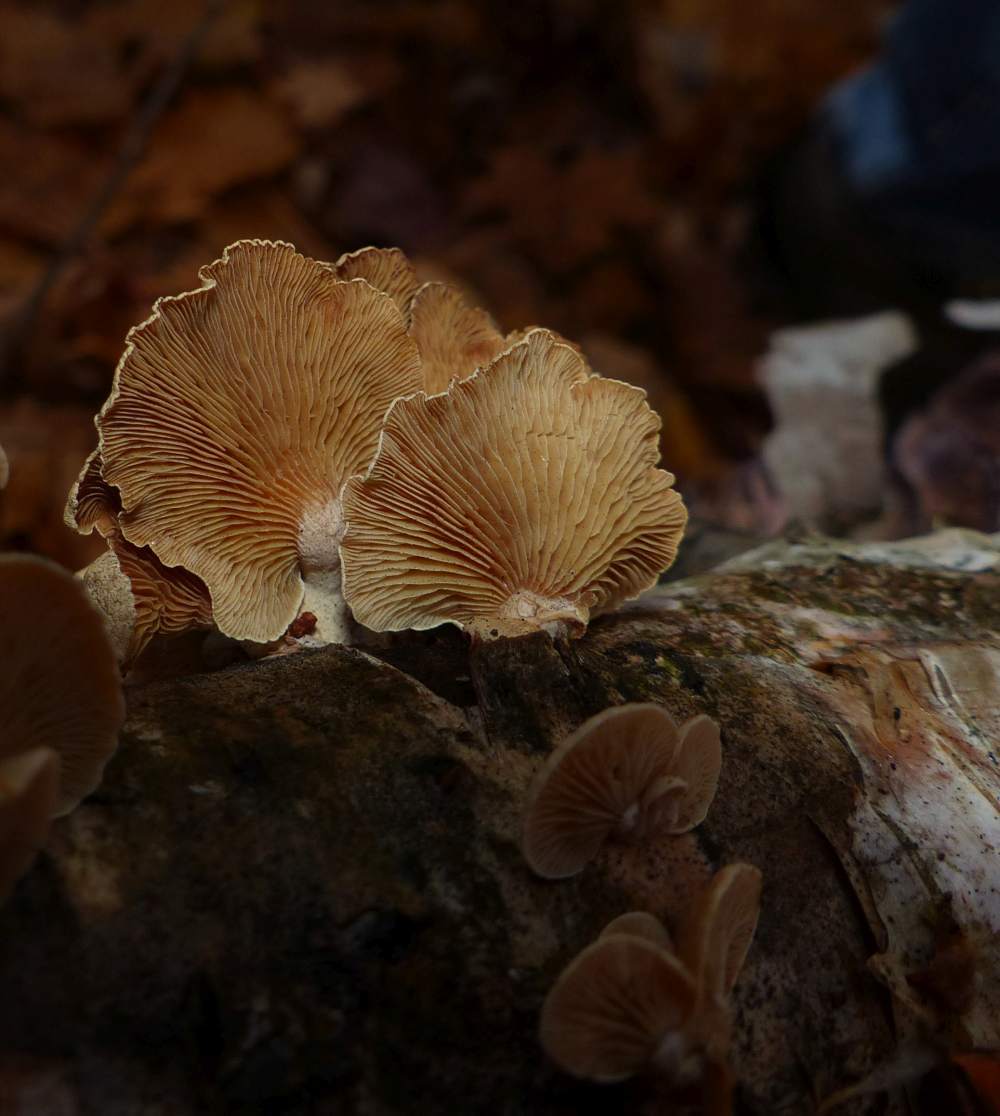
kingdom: Fungi
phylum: Basidiomycota
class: Agaricomycetes
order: Agaricales
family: Mycenaceae
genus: Panellus
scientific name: Panellus stipticus
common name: Bitter oysterling
